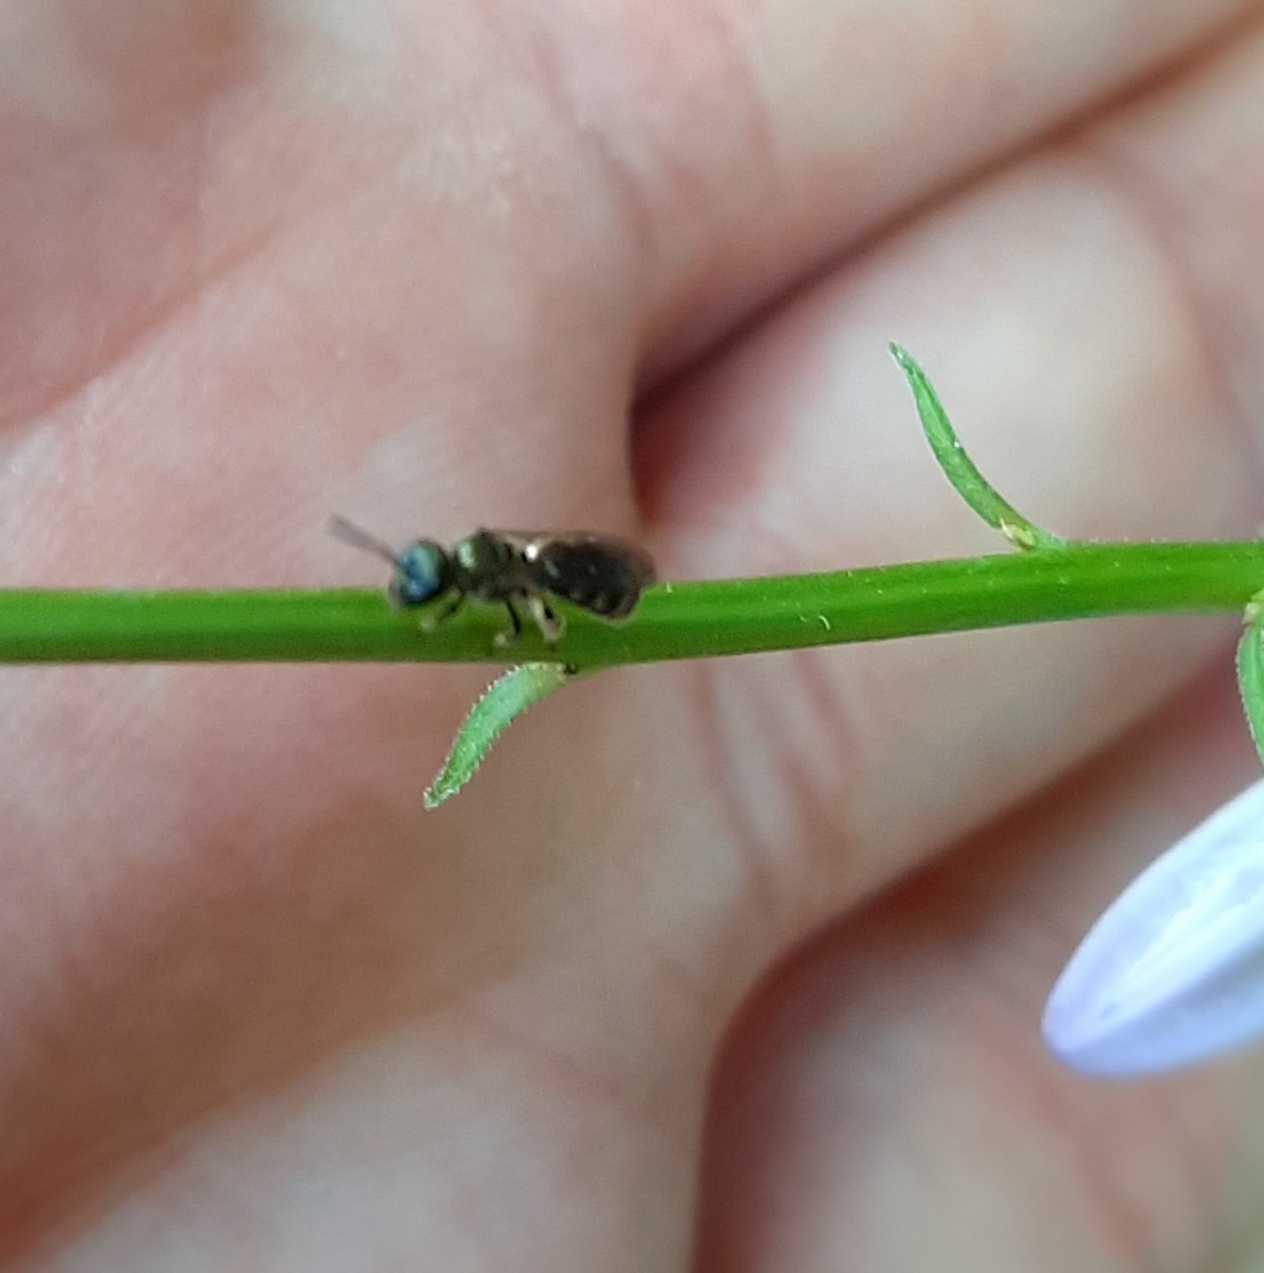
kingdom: Animalia
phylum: Arthropoda
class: Insecta
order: Hymenoptera
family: Halictidae
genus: Dialictus
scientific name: Dialictus
